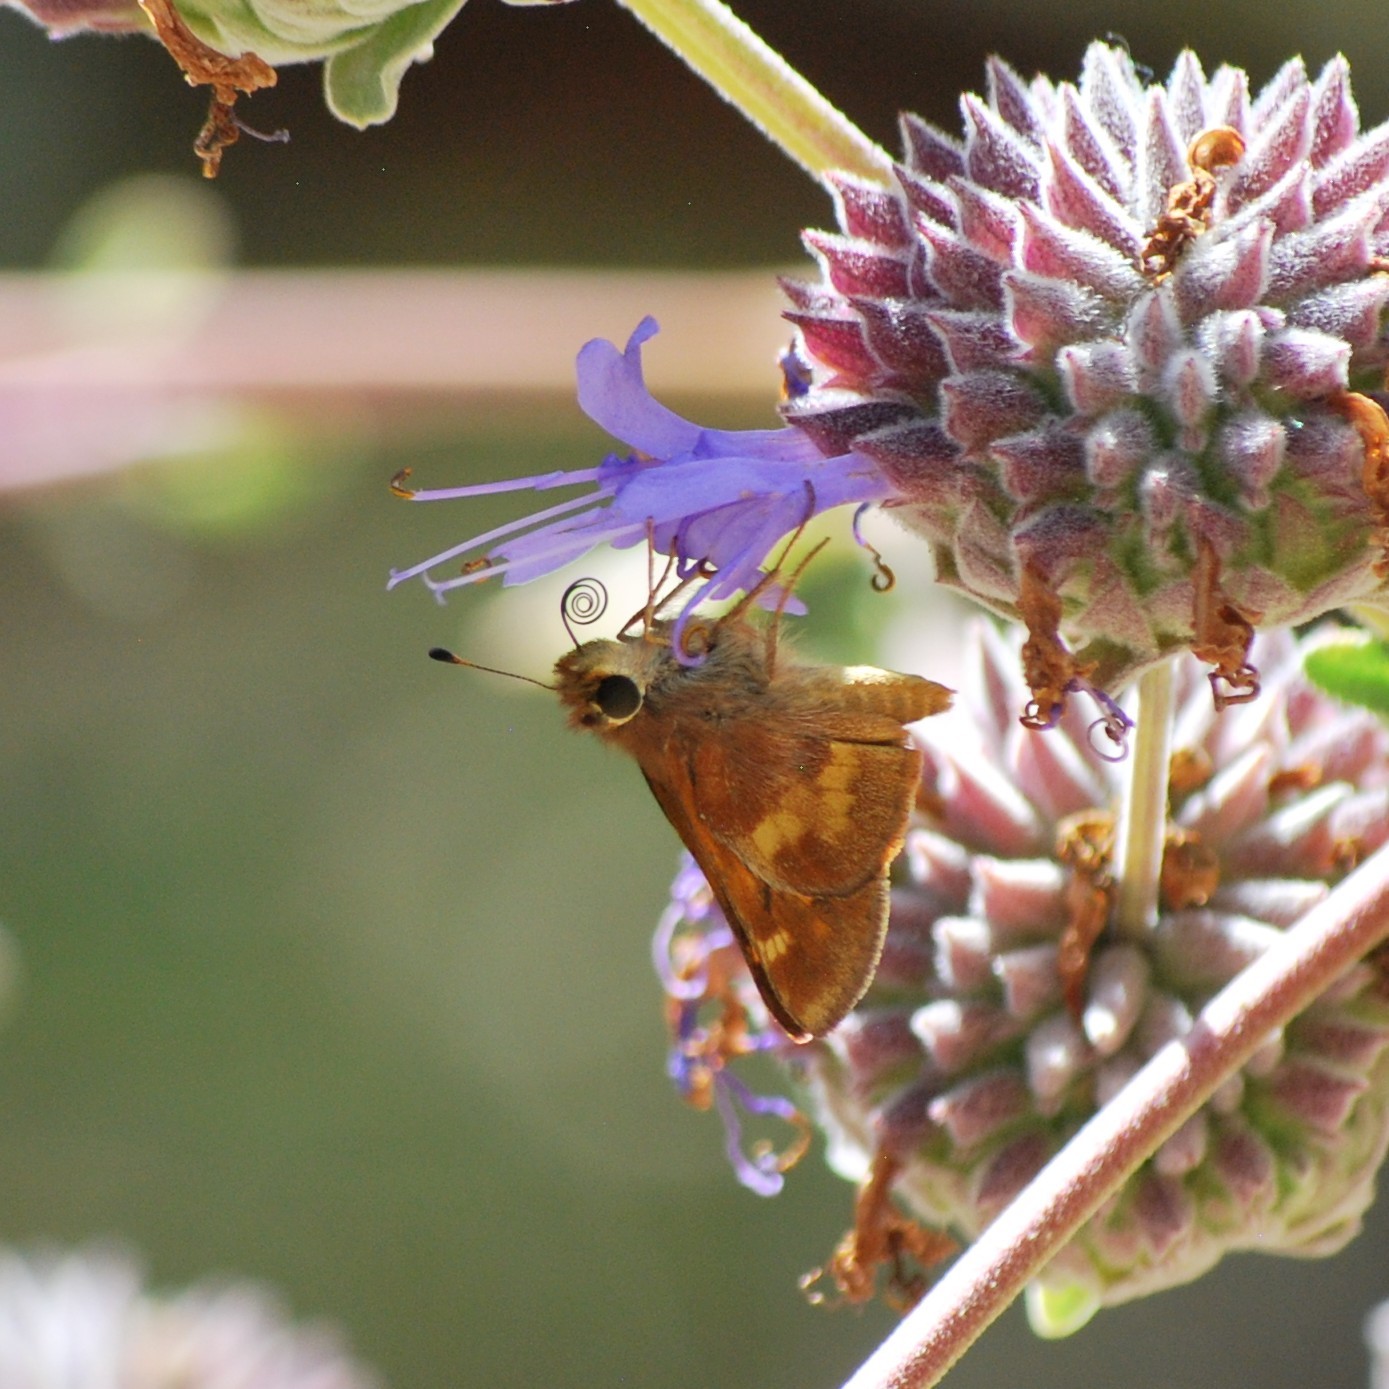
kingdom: Animalia
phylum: Arthropoda
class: Insecta
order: Lepidoptera
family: Hesperiidae
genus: Lon
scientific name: Lon melane
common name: Umber skipper
